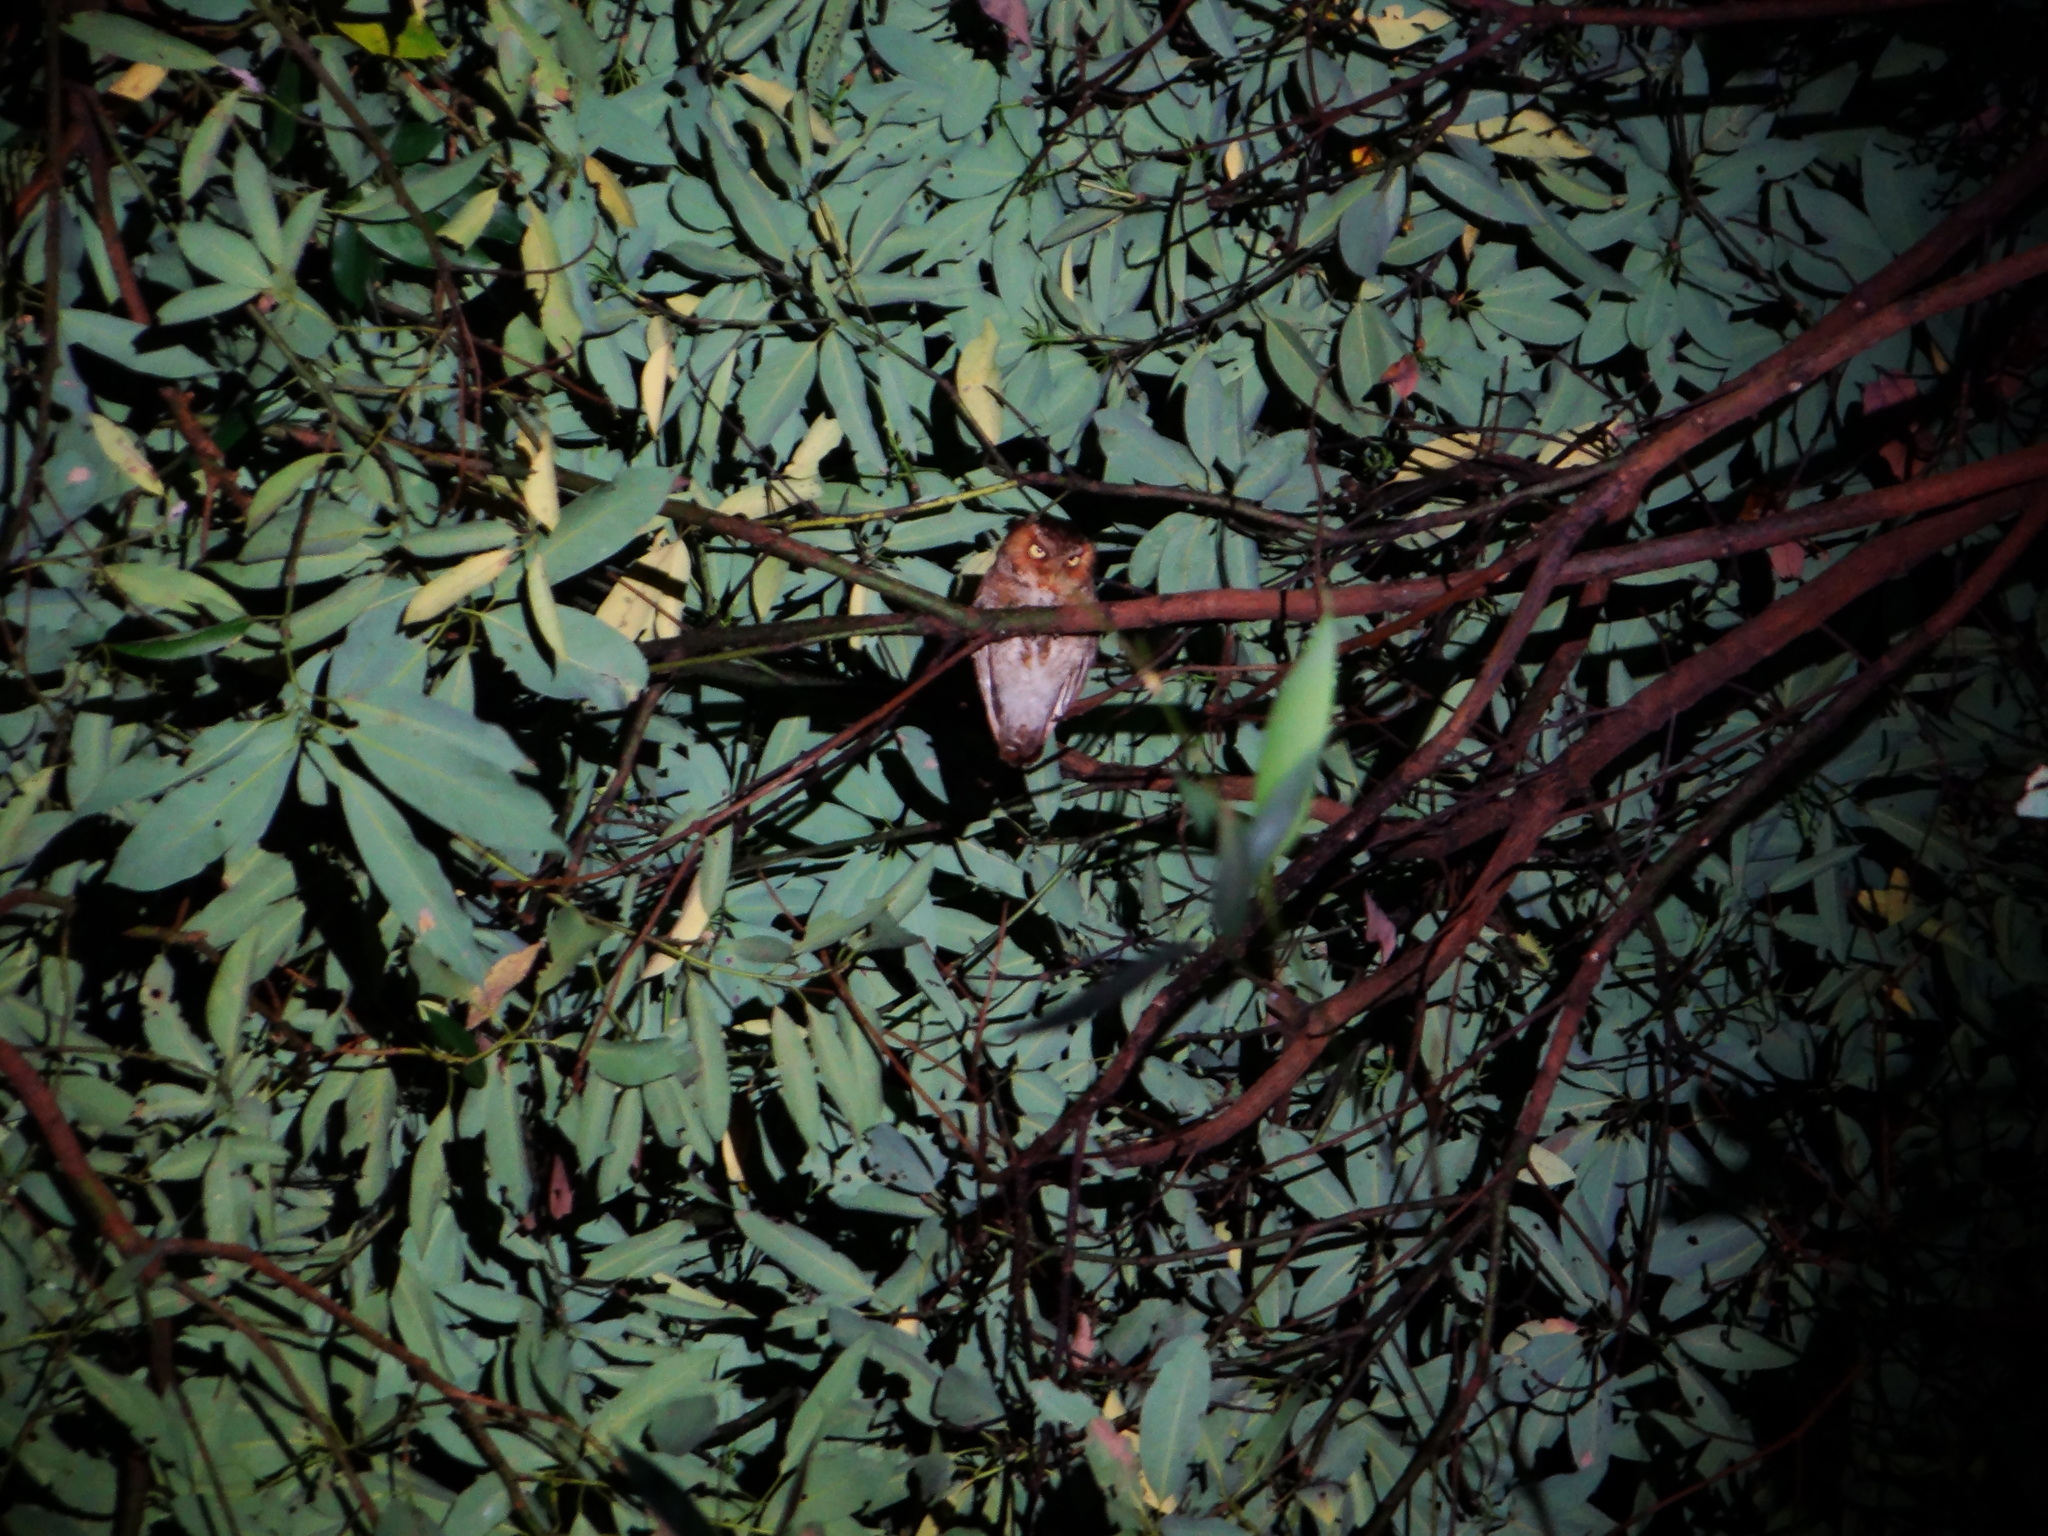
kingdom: Animalia
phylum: Chordata
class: Aves
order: Strigiformes
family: Strigidae
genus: Otus
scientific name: Otus spilocephalus
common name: Mountain scops owl
